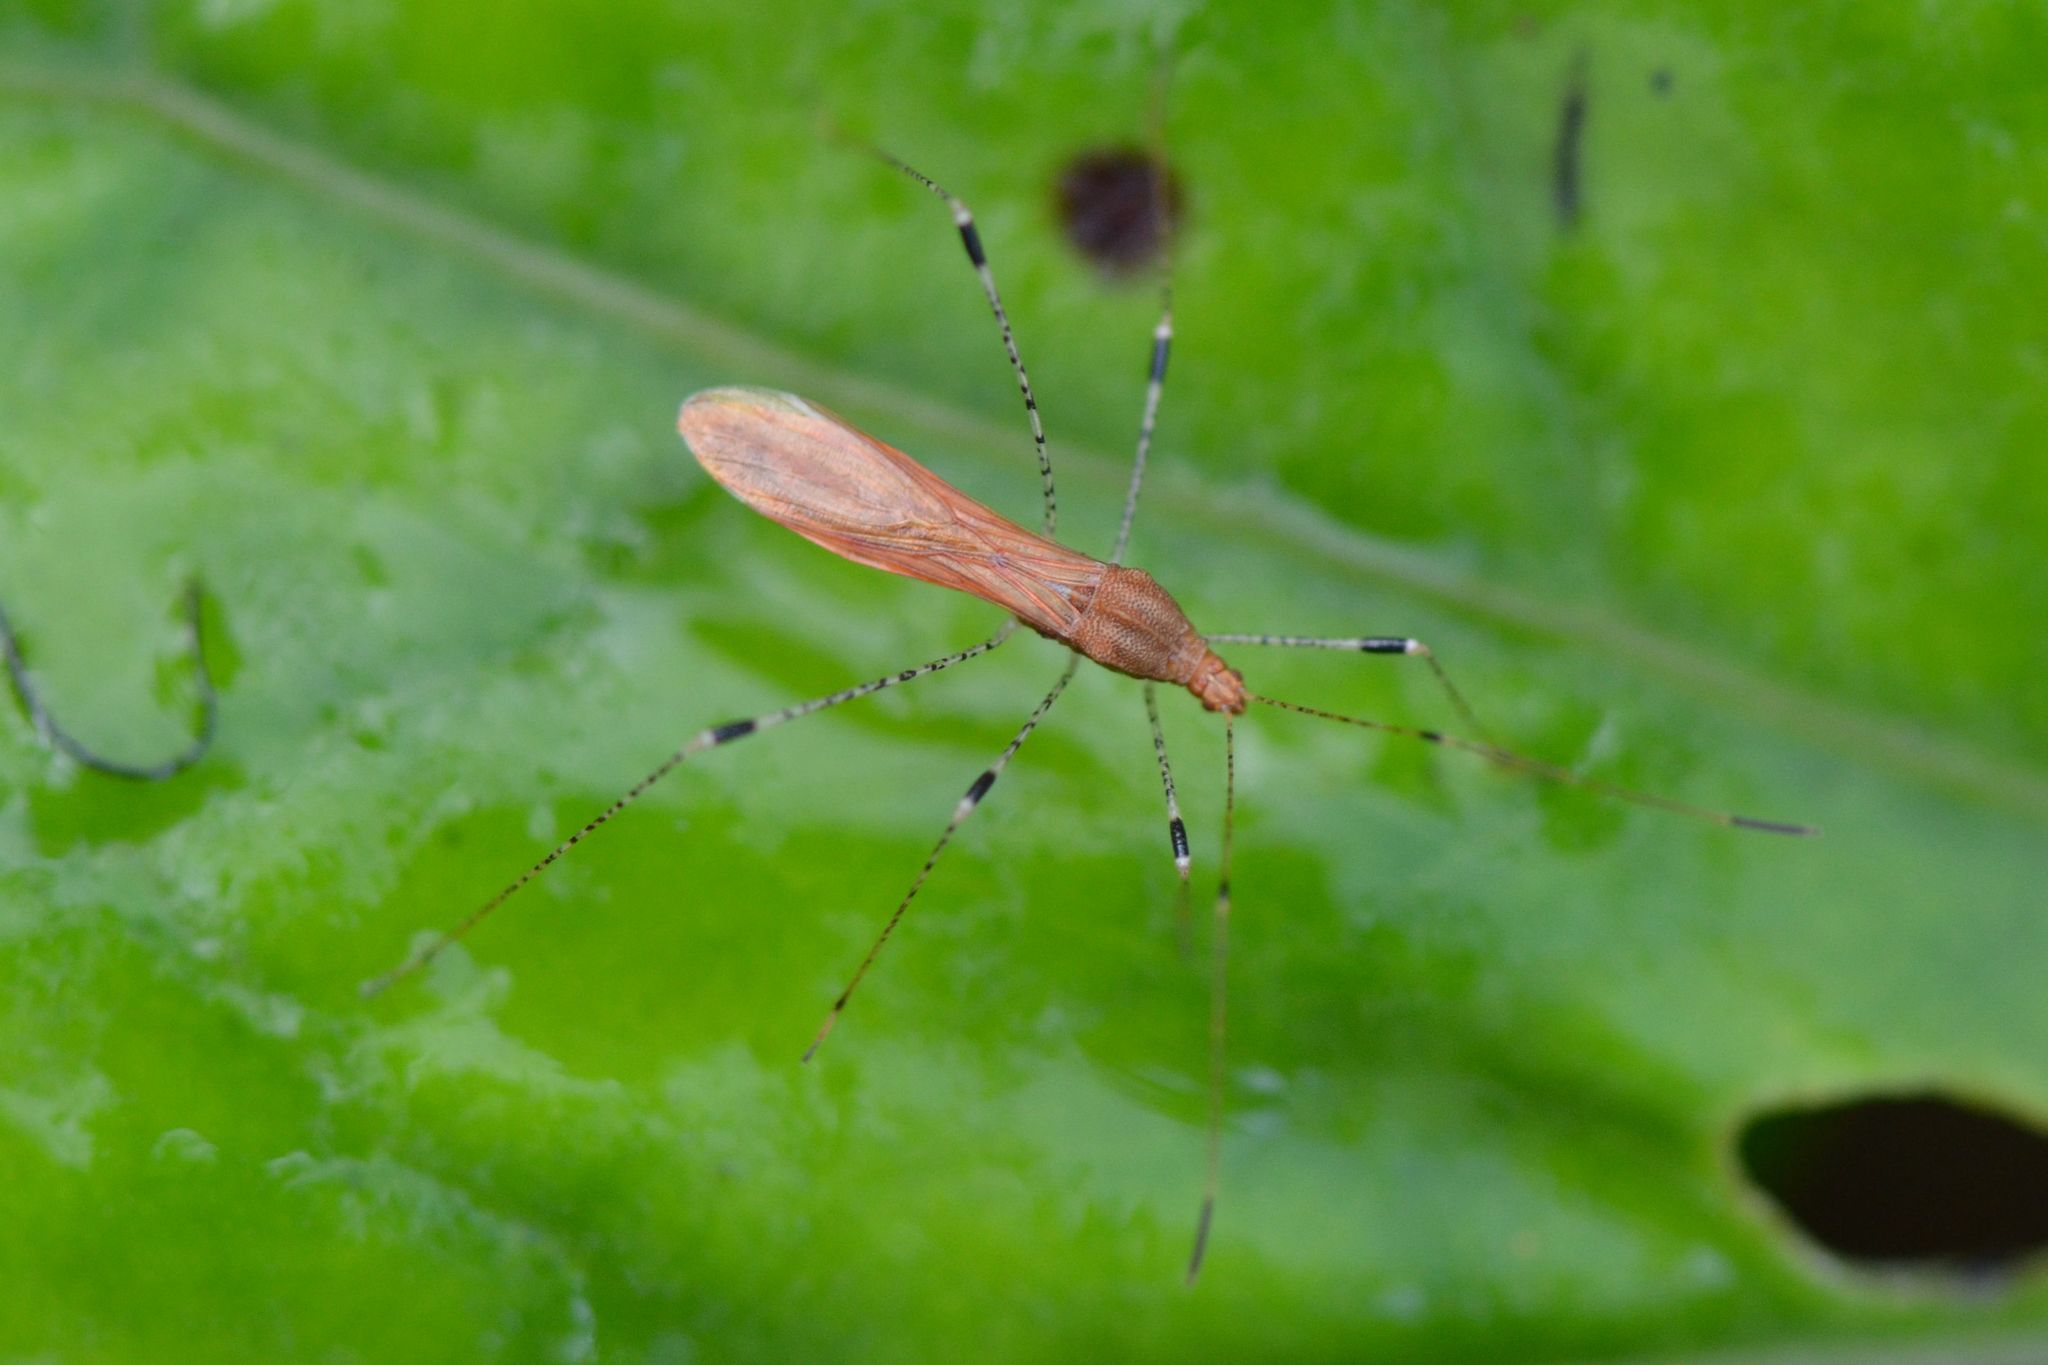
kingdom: Animalia
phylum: Arthropoda
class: Insecta
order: Hemiptera
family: Berytidae
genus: Metatropis
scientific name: Metatropis rufescens
